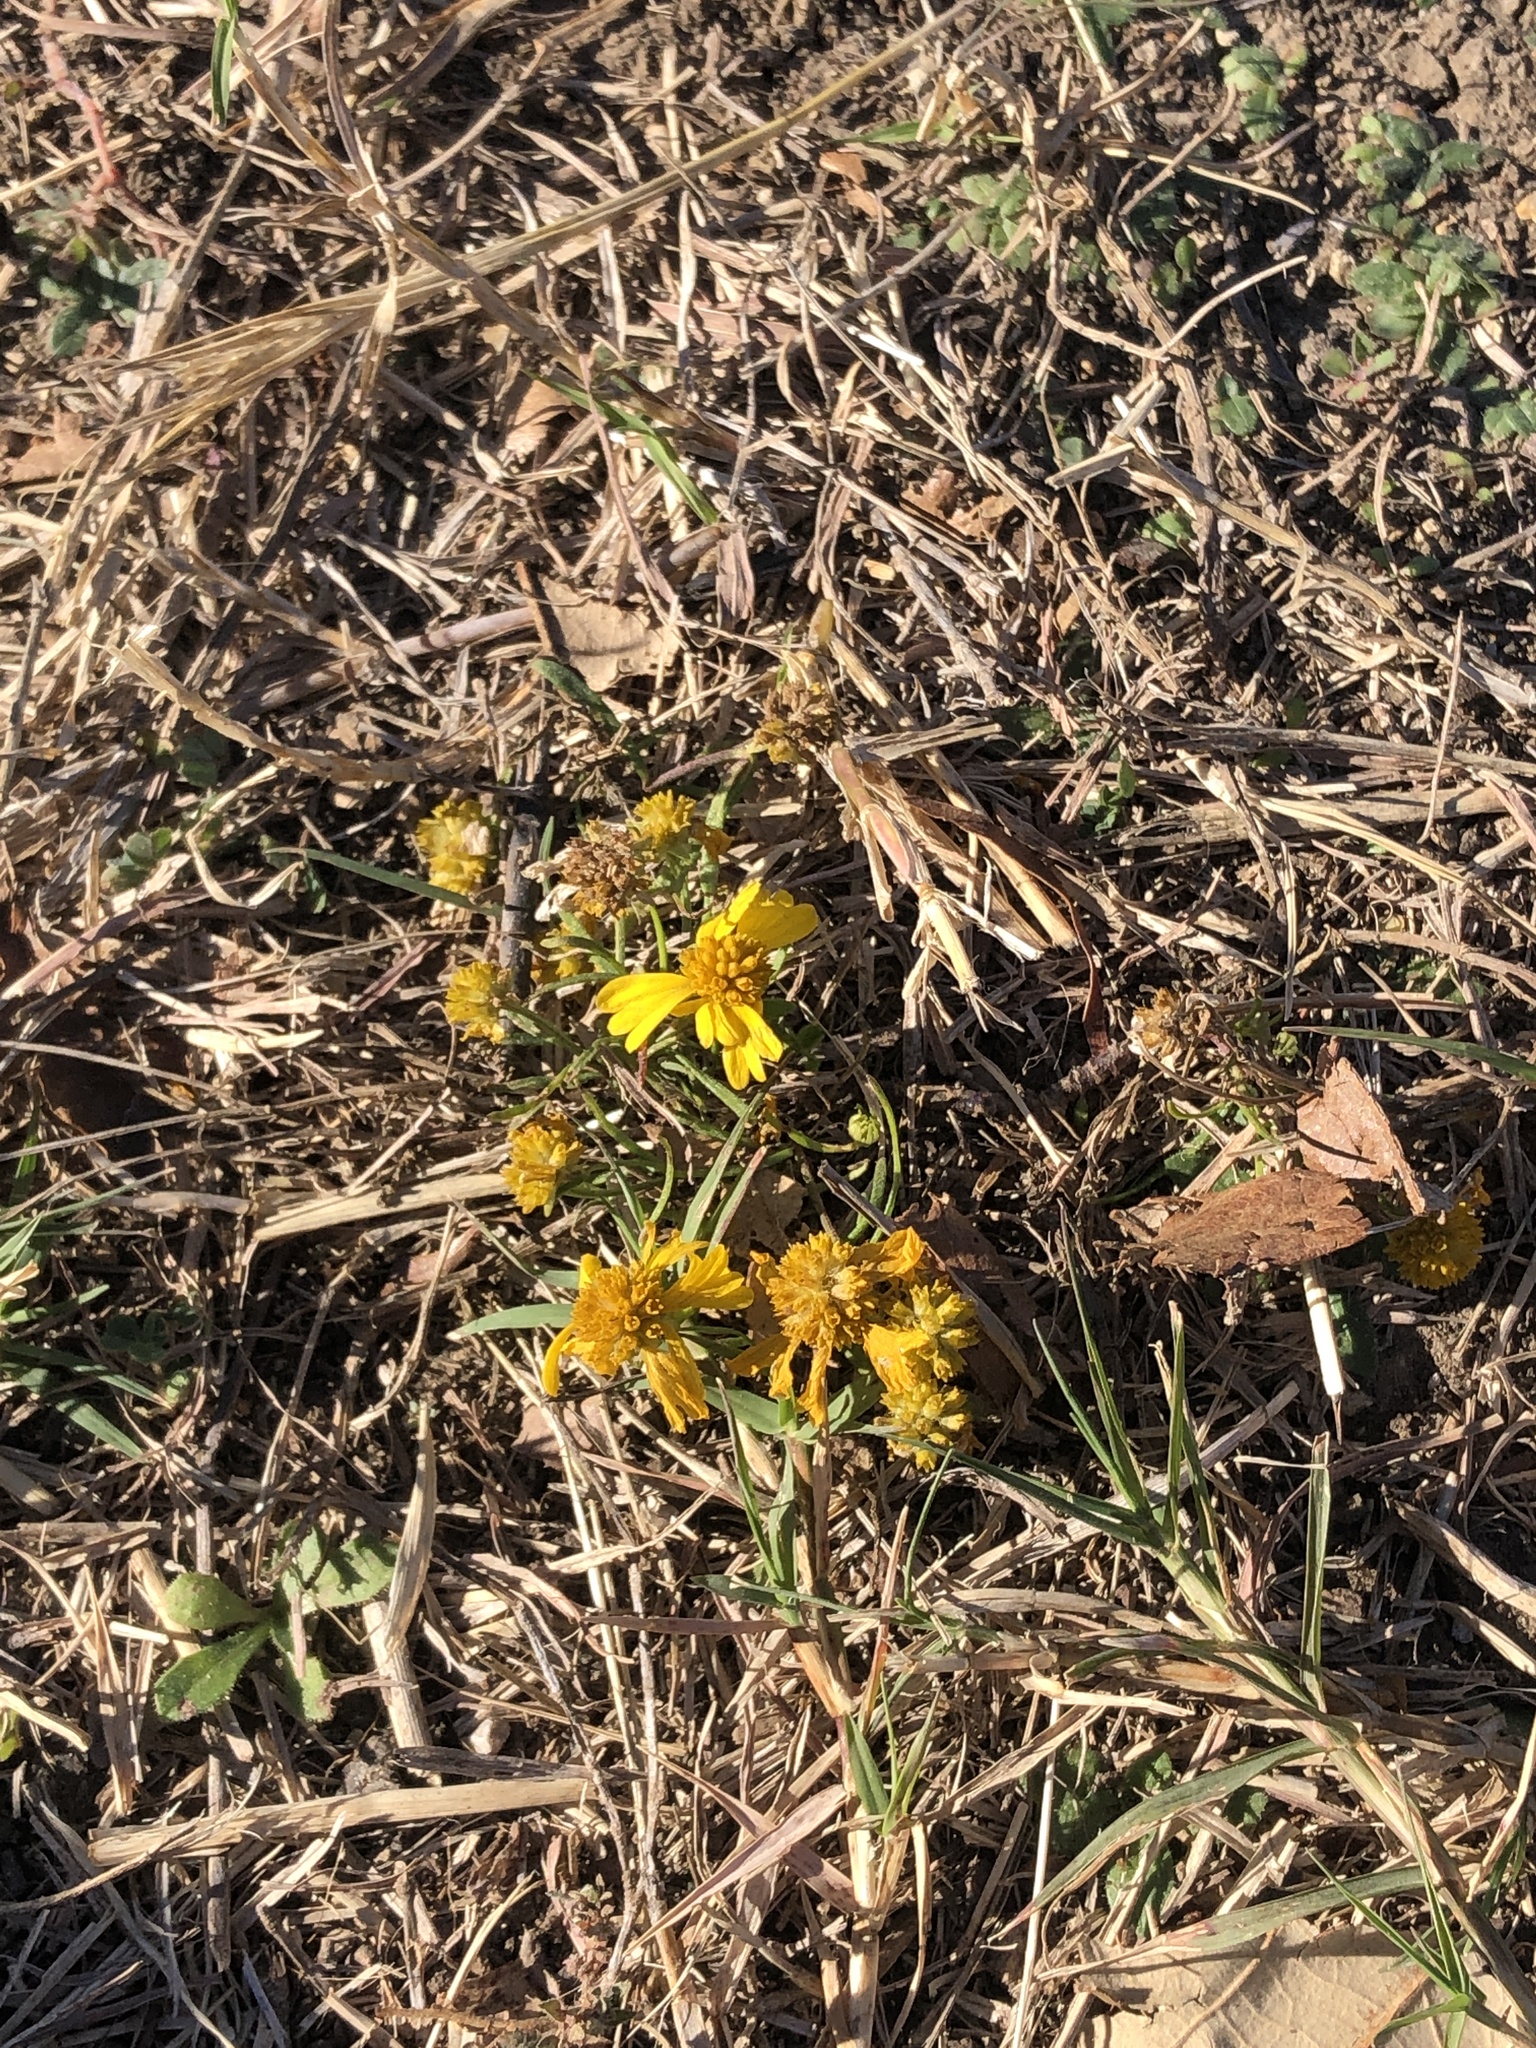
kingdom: Plantae
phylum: Tracheophyta
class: Magnoliopsida
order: Asterales
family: Asteraceae
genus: Helenium
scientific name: Helenium amarum
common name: Bitter sneezeweed
